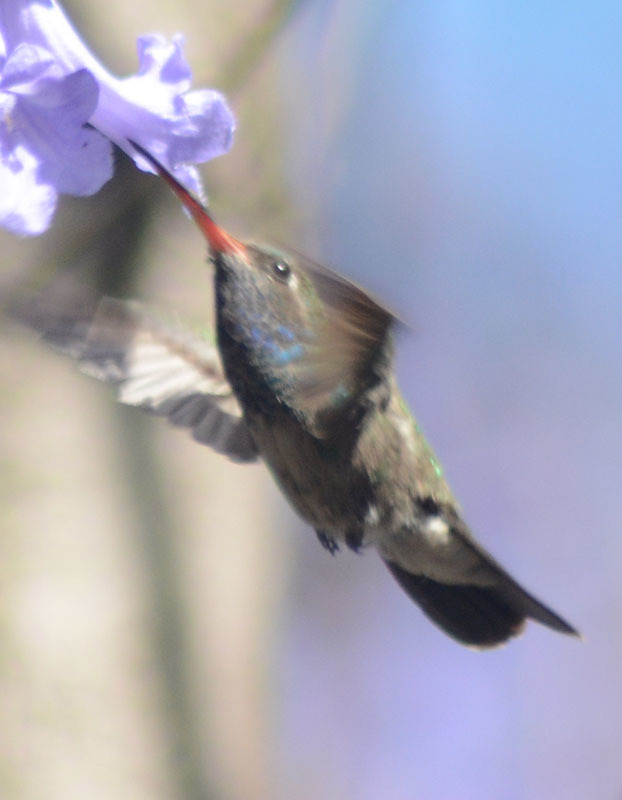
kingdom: Animalia
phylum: Chordata
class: Aves
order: Apodiformes
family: Trochilidae
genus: Cynanthus
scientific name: Cynanthus latirostris
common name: Broad-billed hummingbird
